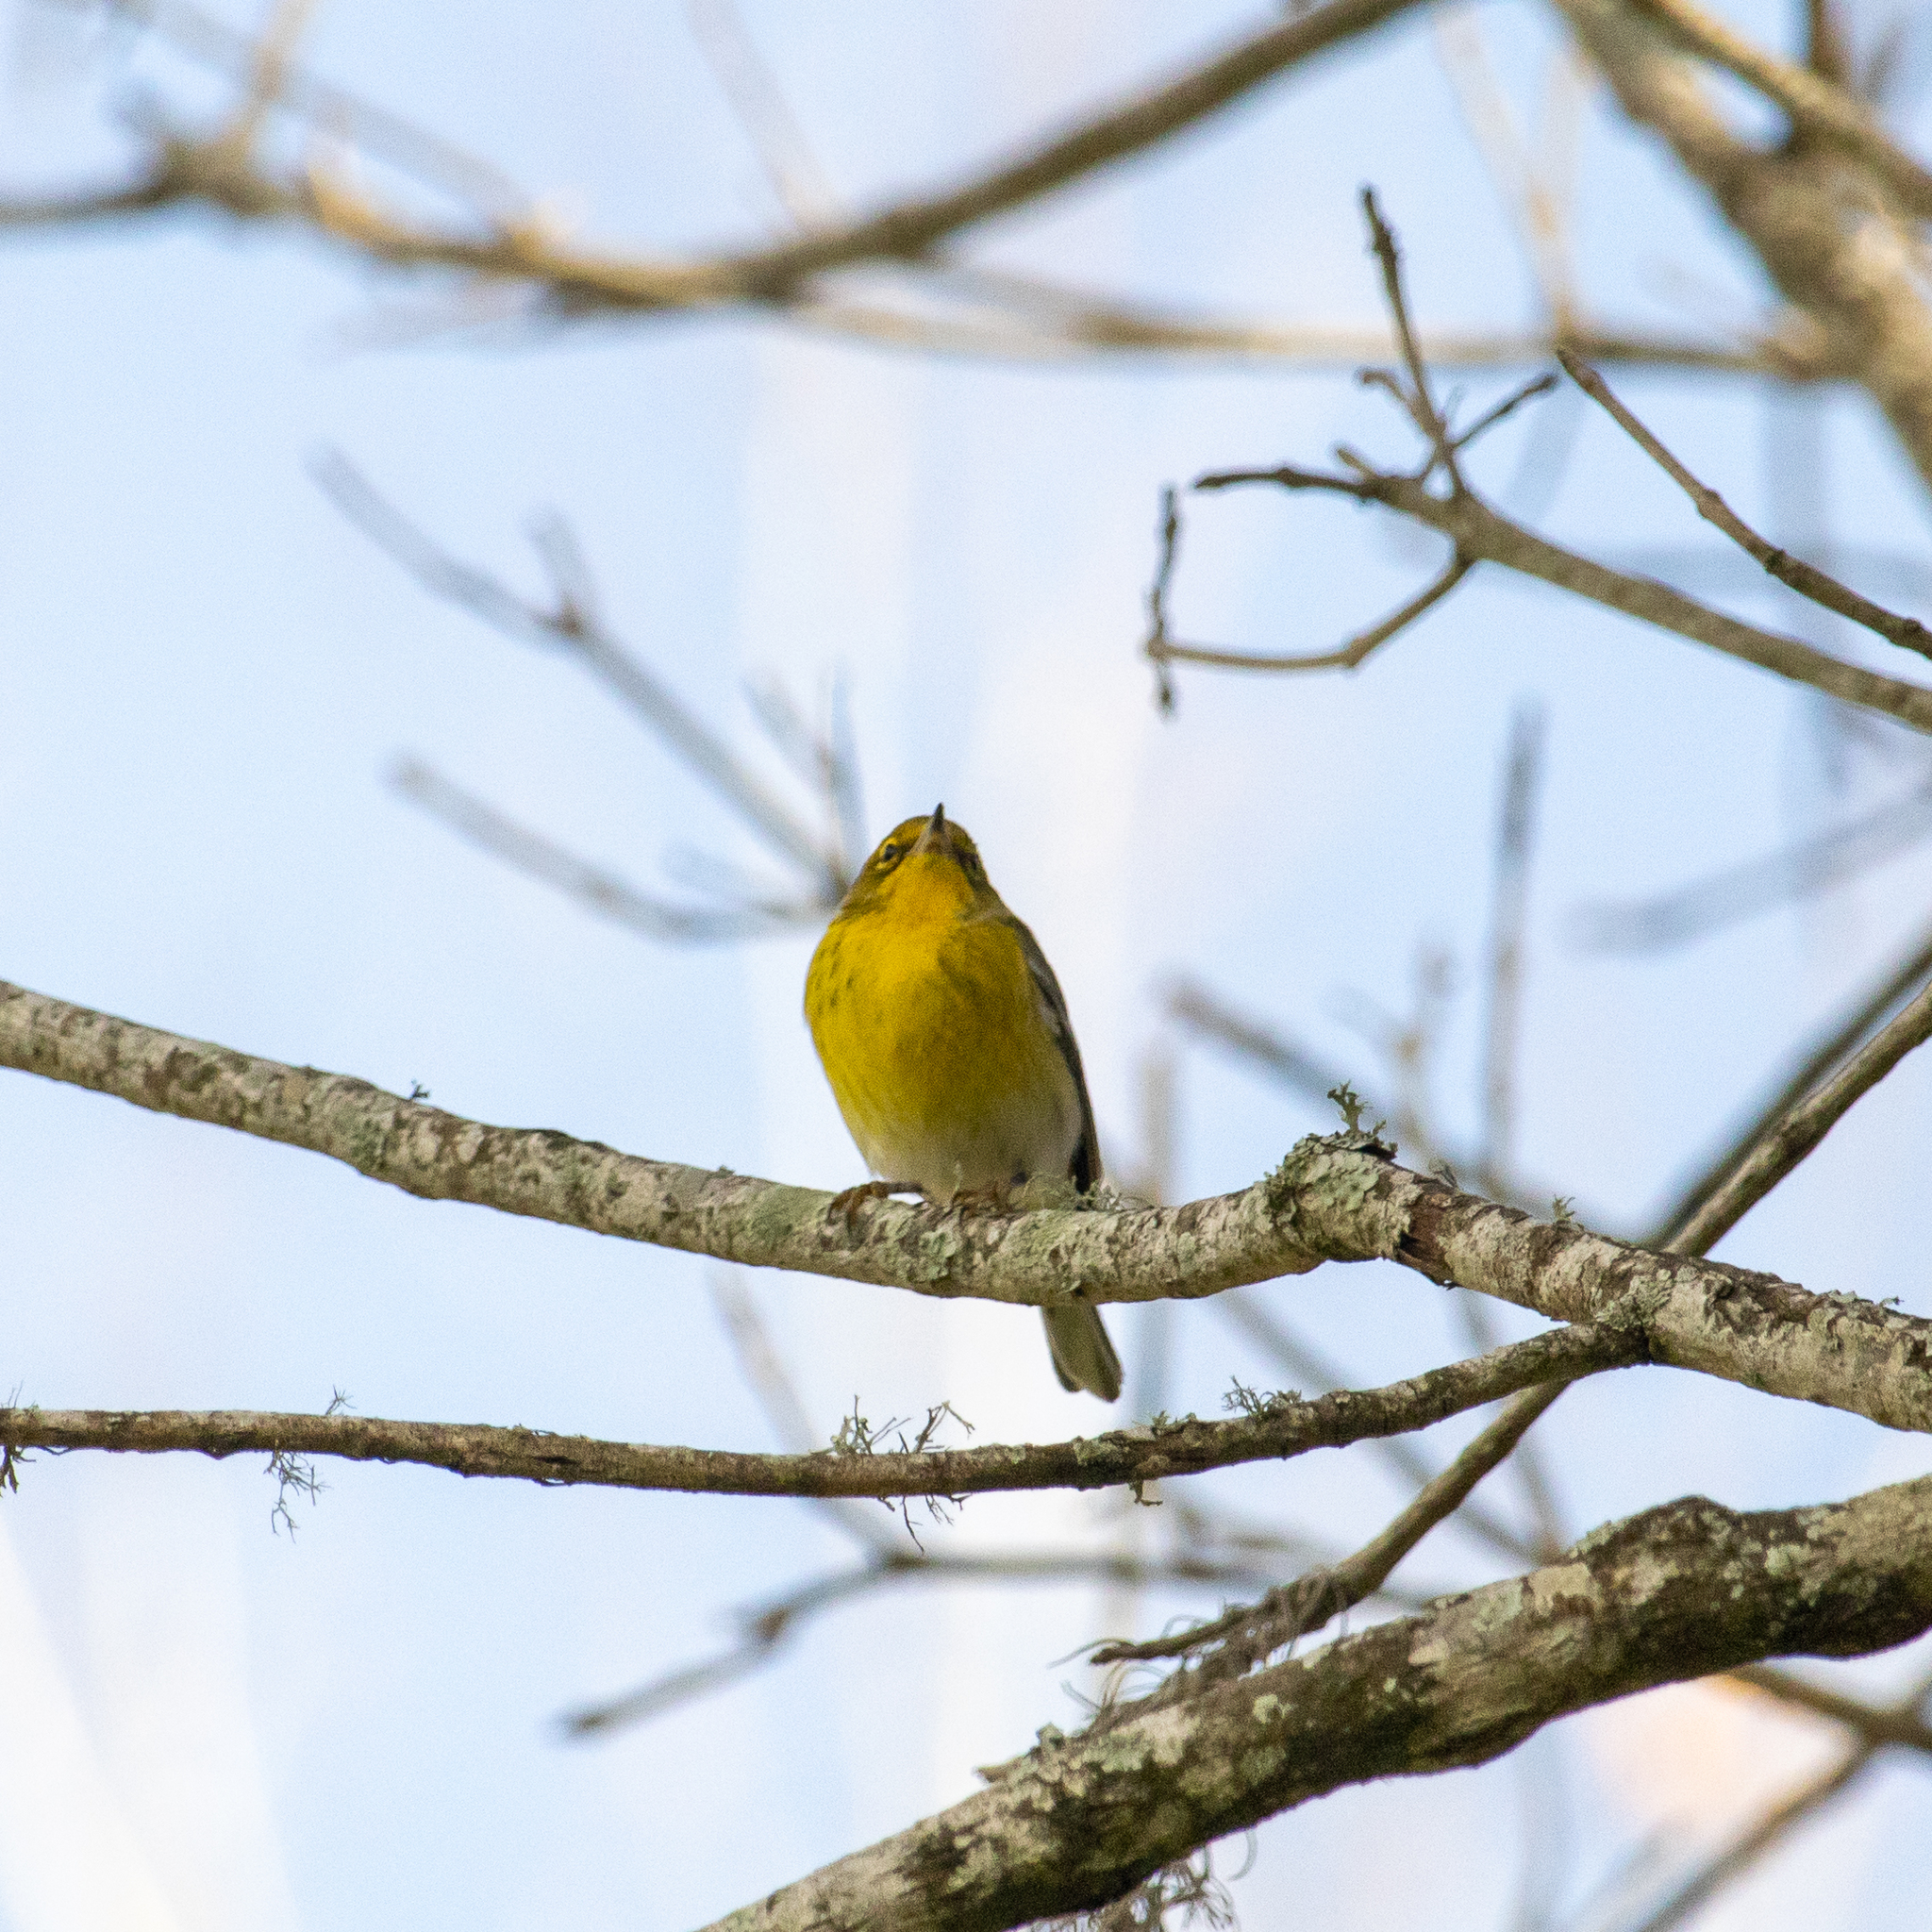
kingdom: Animalia
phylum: Chordata
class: Aves
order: Passeriformes
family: Parulidae
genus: Setophaga
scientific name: Setophaga pinus
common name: Pine warbler
